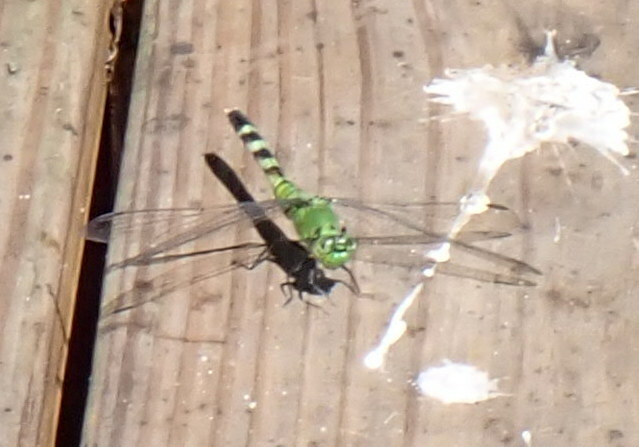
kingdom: Animalia
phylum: Arthropoda
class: Insecta
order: Odonata
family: Libellulidae
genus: Erythemis
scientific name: Erythemis simplicicollis
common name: Eastern pondhawk
